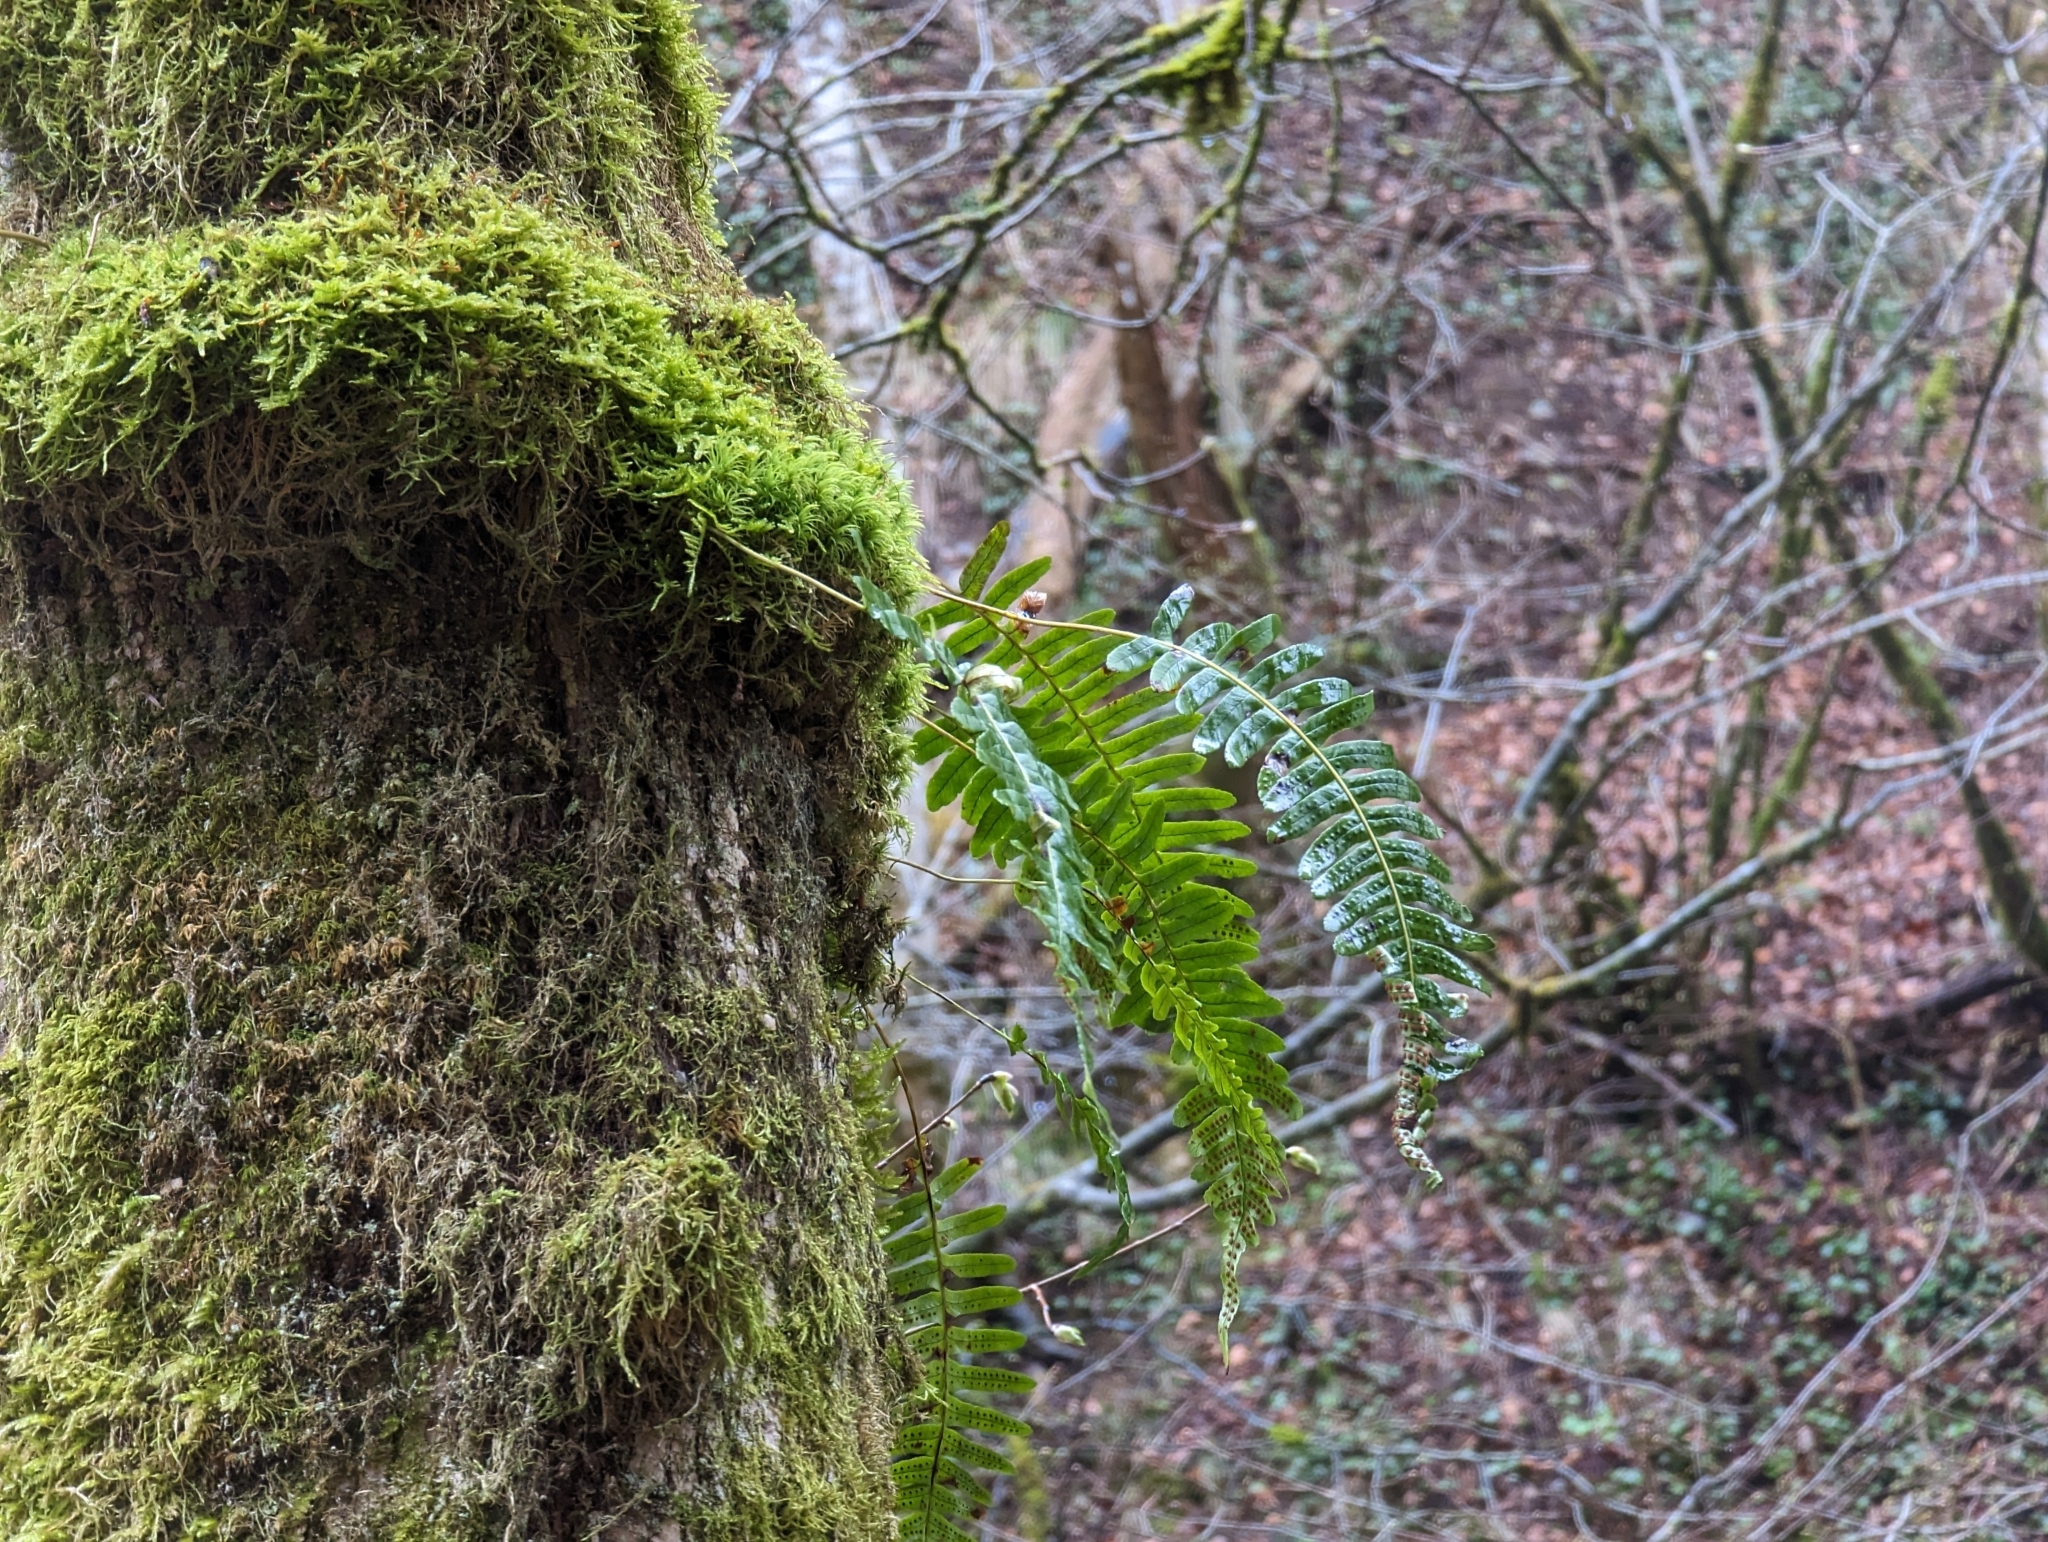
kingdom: Plantae
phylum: Tracheophyta
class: Polypodiopsida
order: Polypodiales
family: Polypodiaceae
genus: Polypodium
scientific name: Polypodium vulgare
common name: Common polypody
